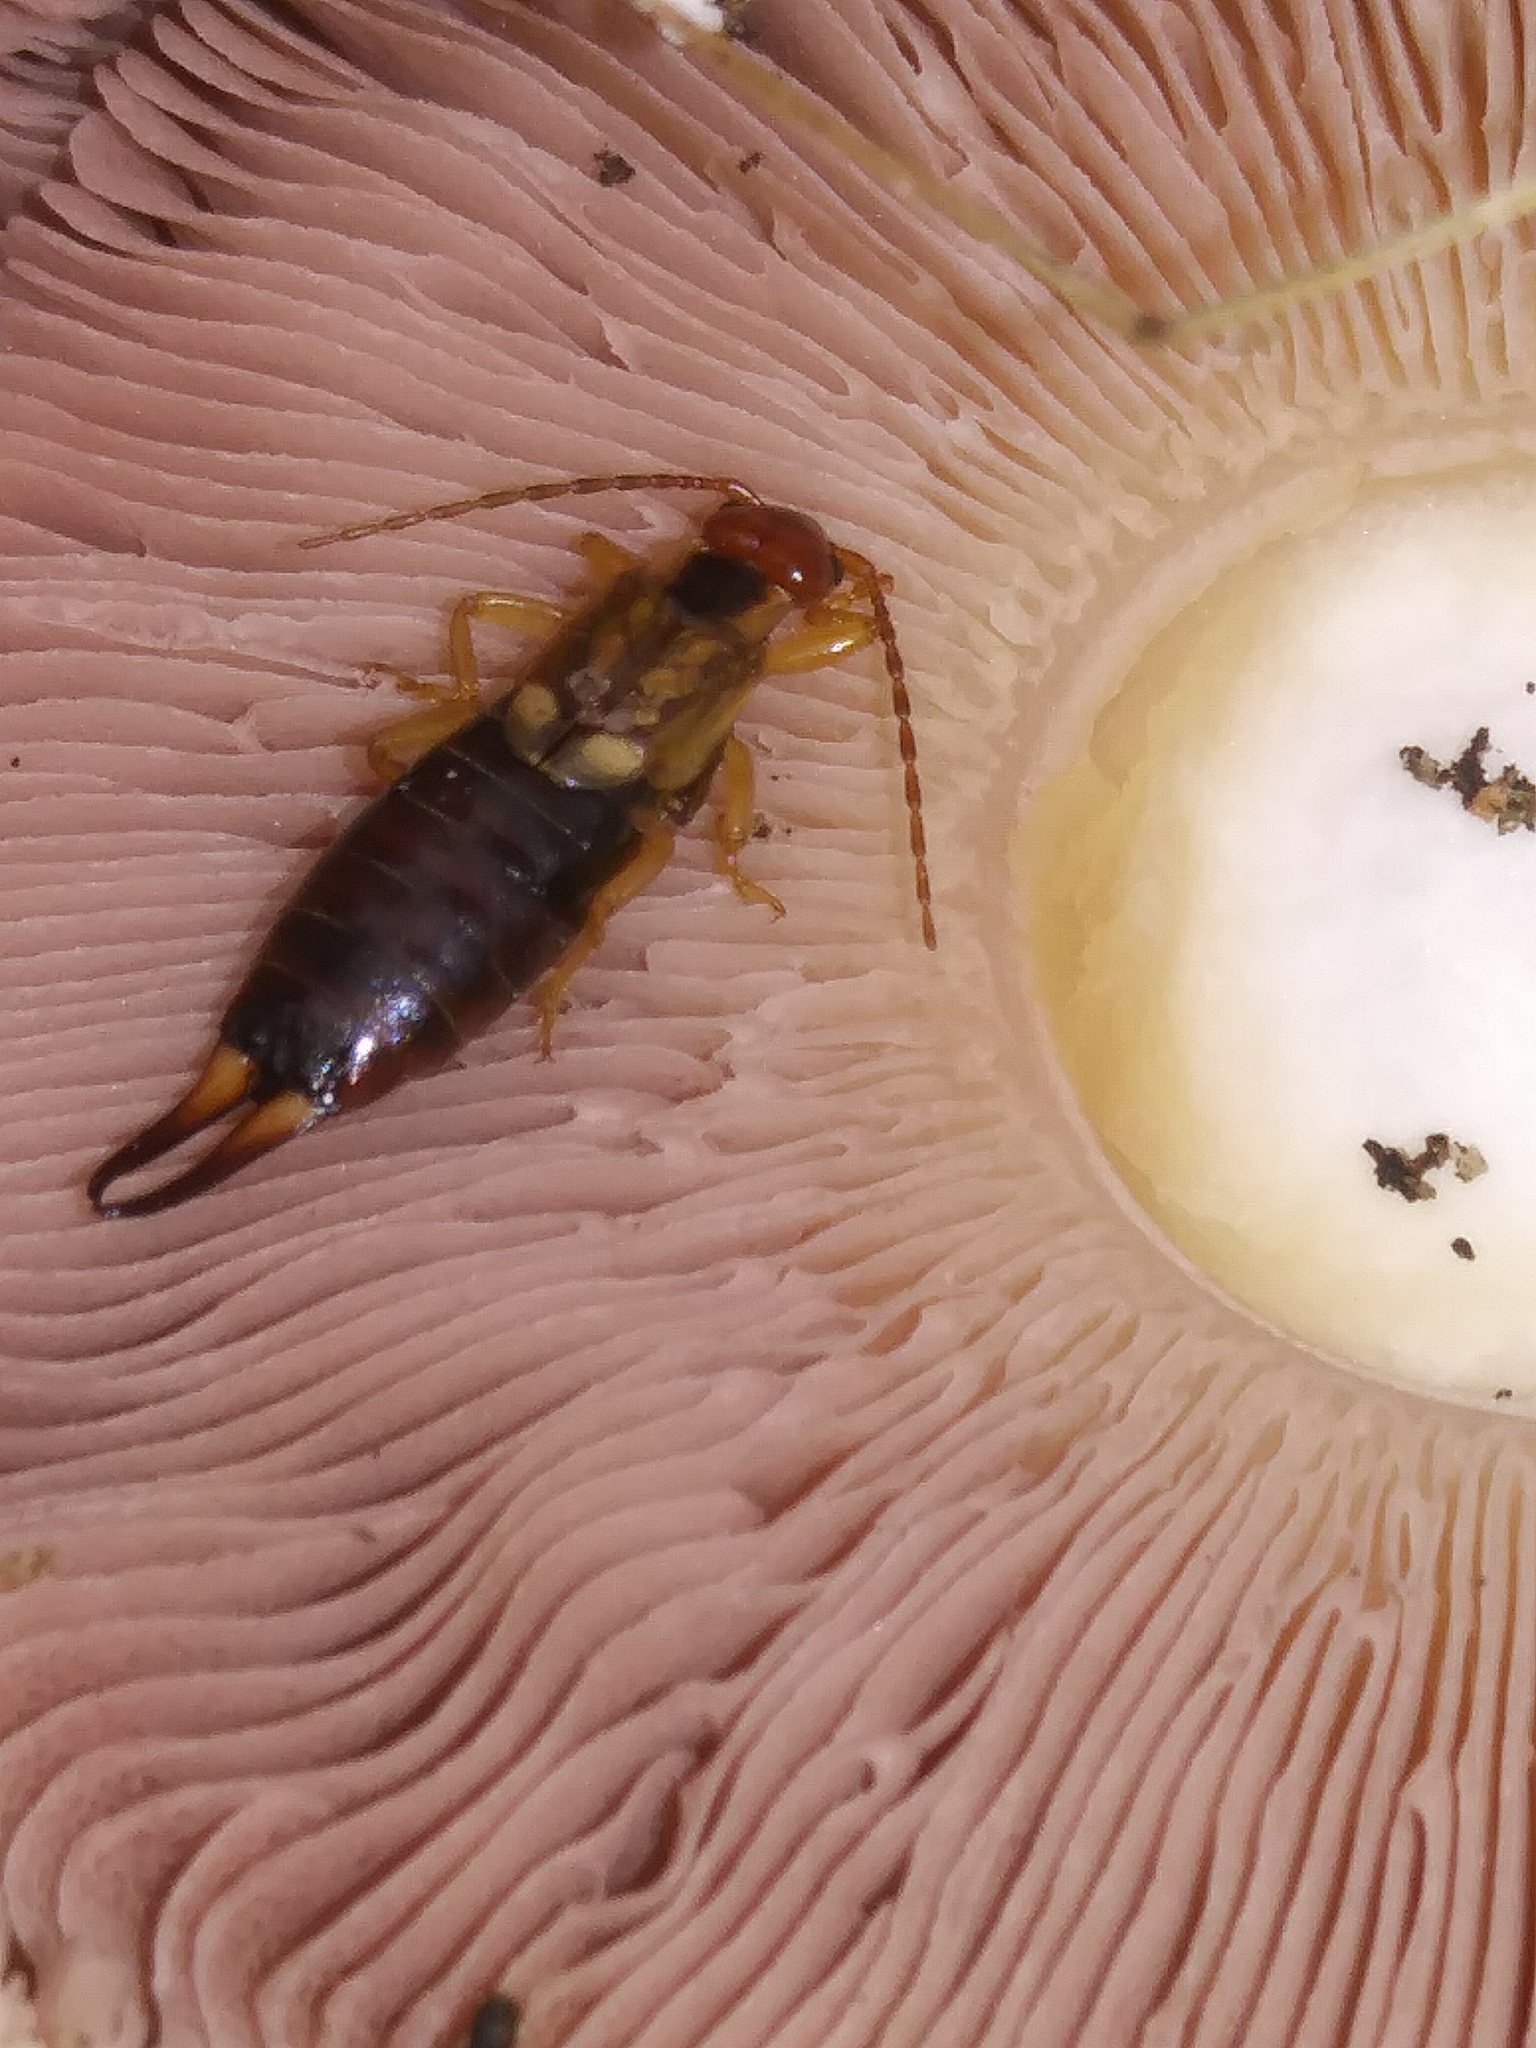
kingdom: Animalia
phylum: Arthropoda
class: Insecta
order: Dermaptera
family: Forficulidae
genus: Forficula
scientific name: Forficula
